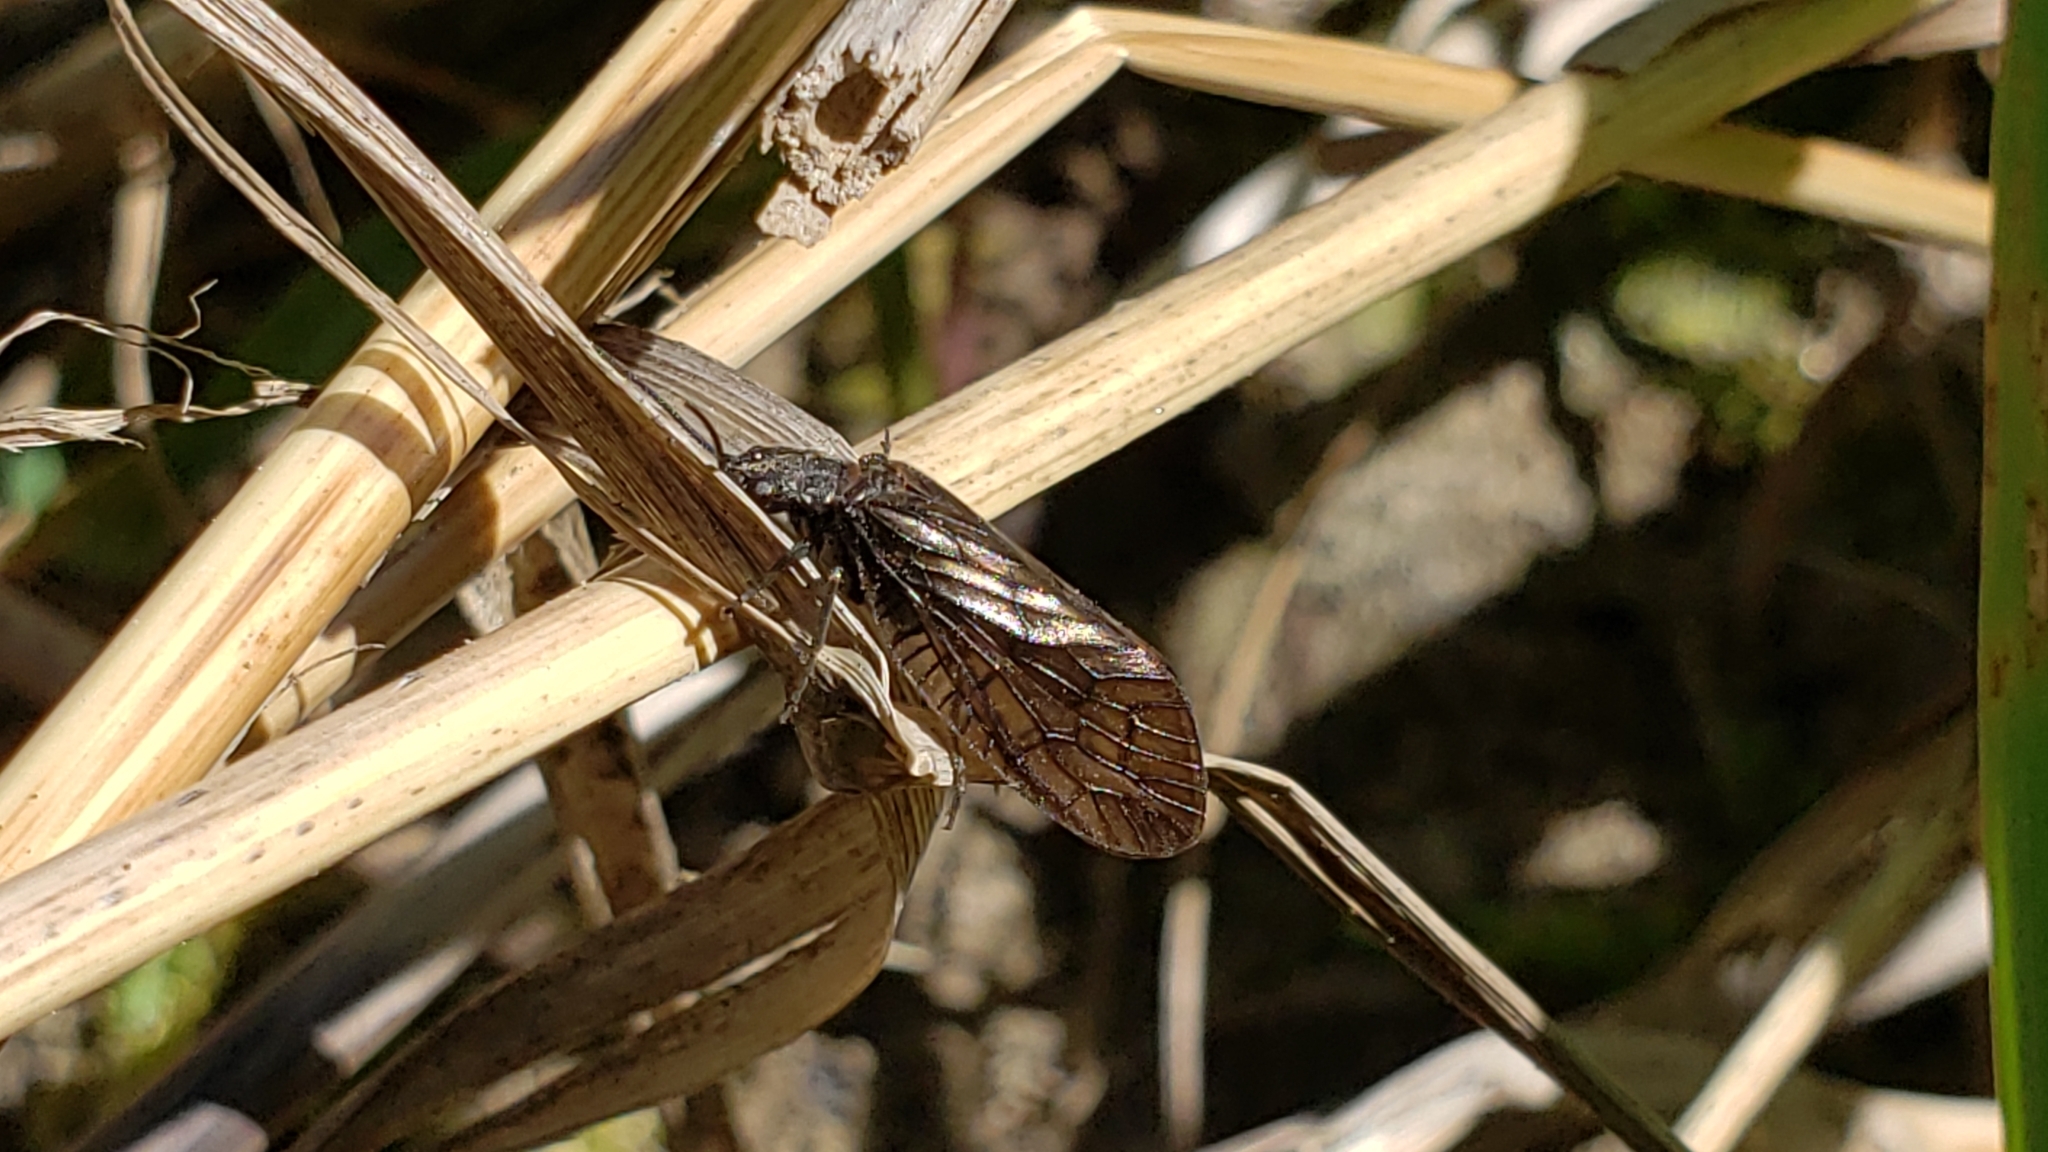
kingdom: Animalia
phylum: Arthropoda
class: Insecta
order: Megaloptera
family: Sialidae
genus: Sialis
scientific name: Sialis
